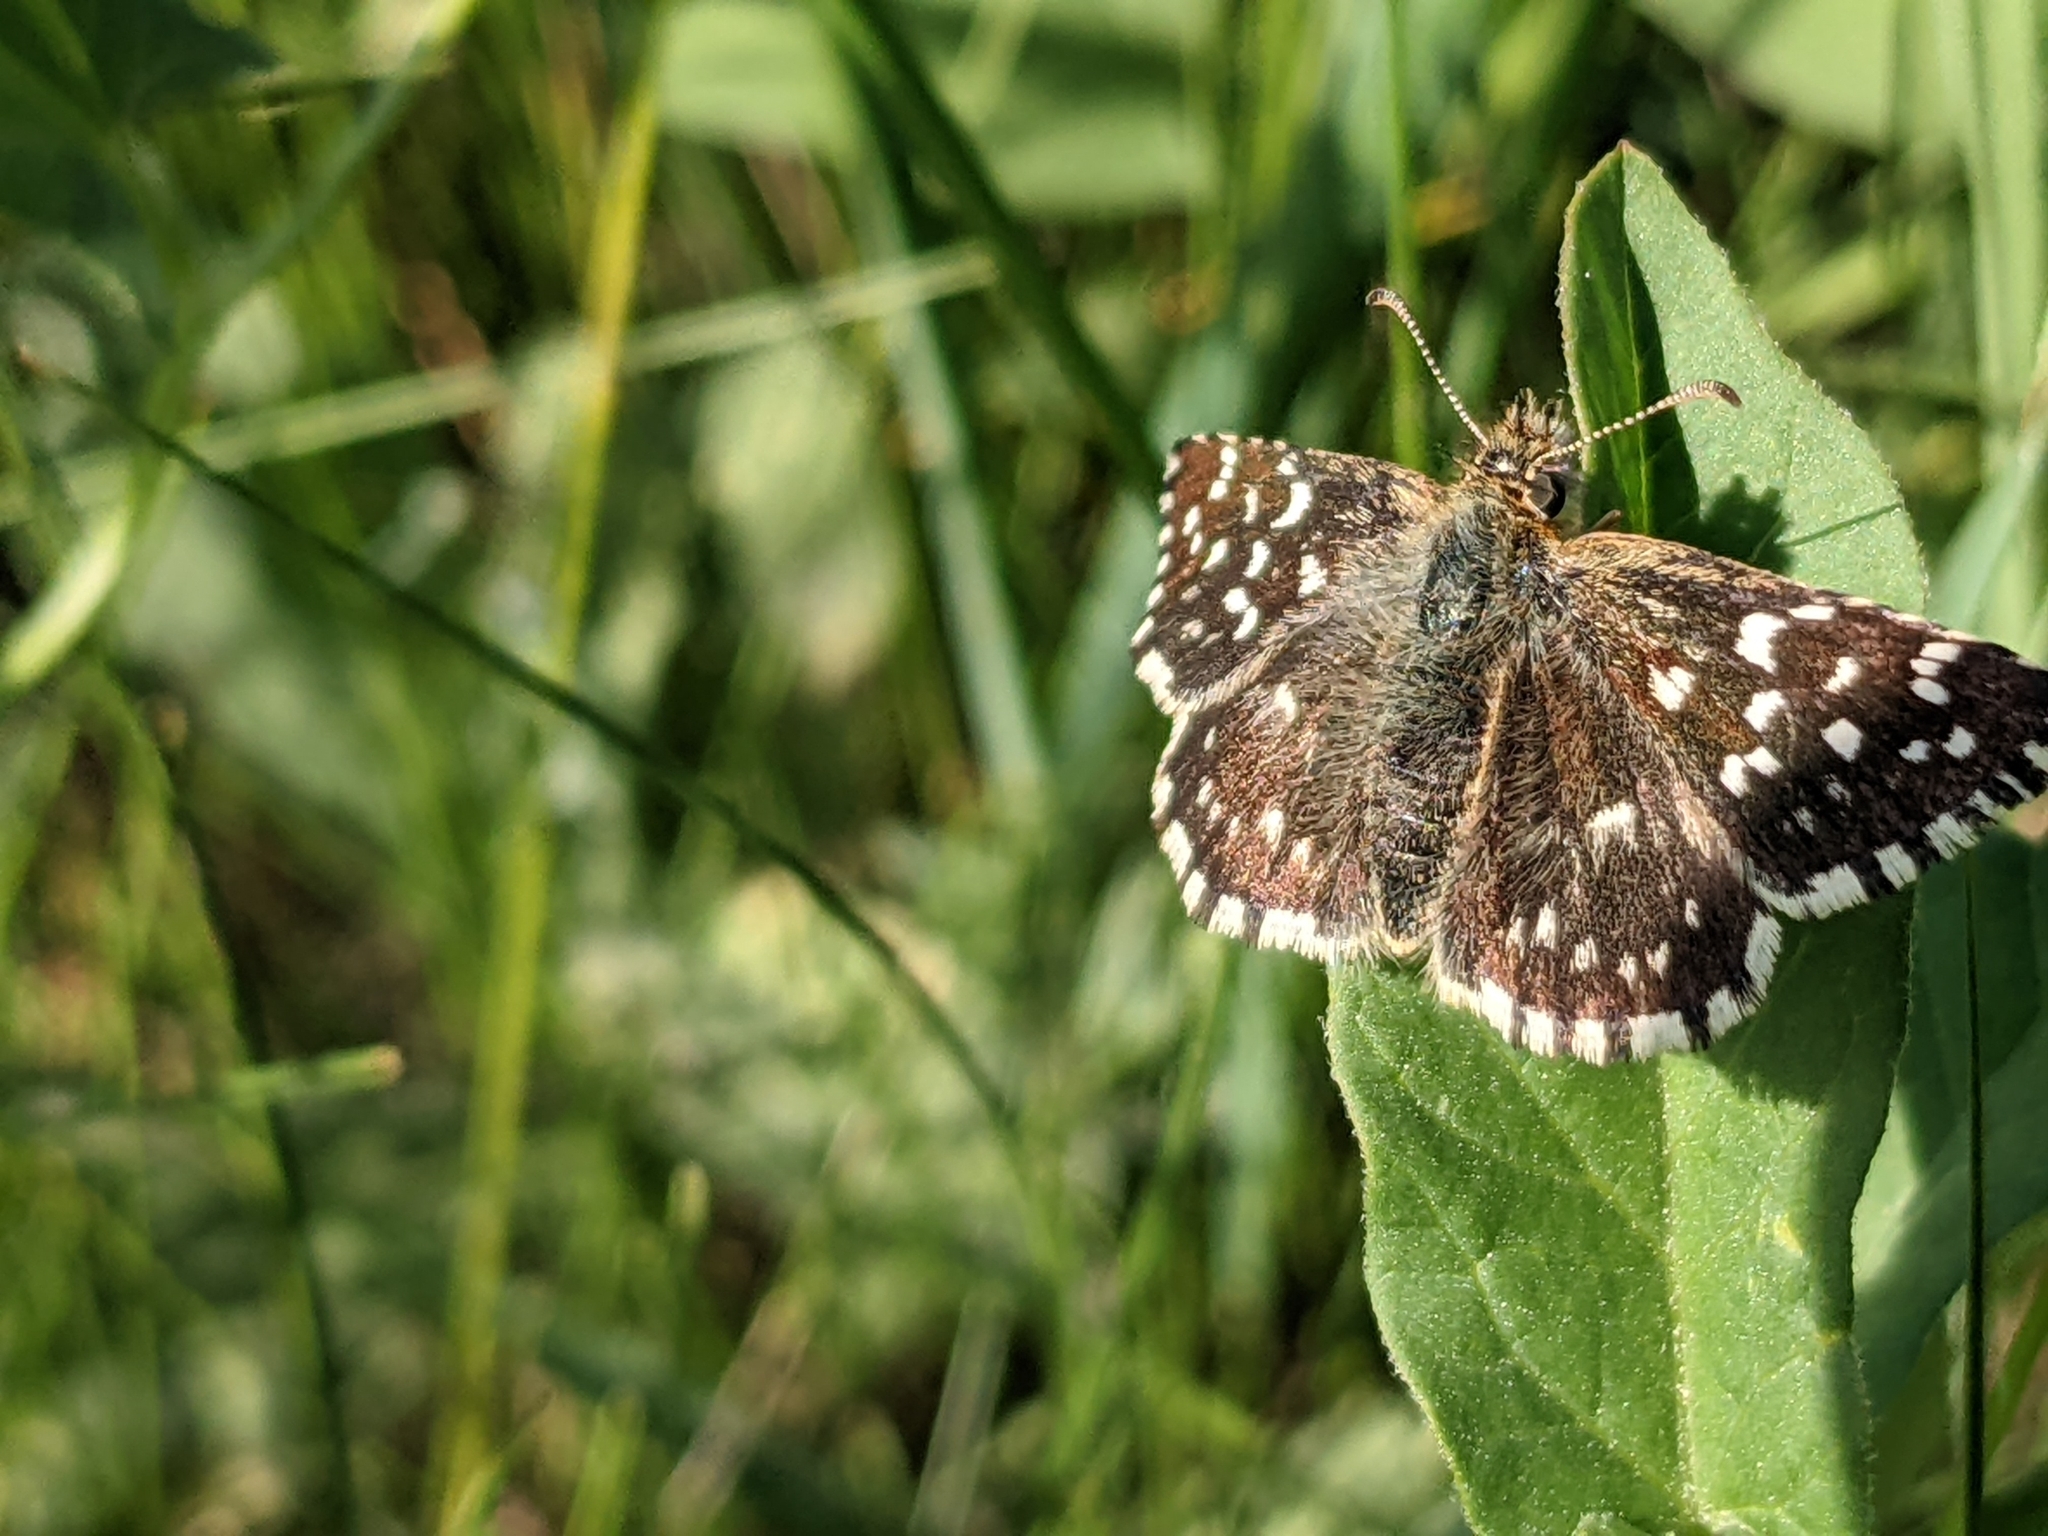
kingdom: Animalia
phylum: Arthropoda
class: Insecta
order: Lepidoptera
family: Hesperiidae
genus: Pyrgus
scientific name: Pyrgus malvae
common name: Grizzled skipper
